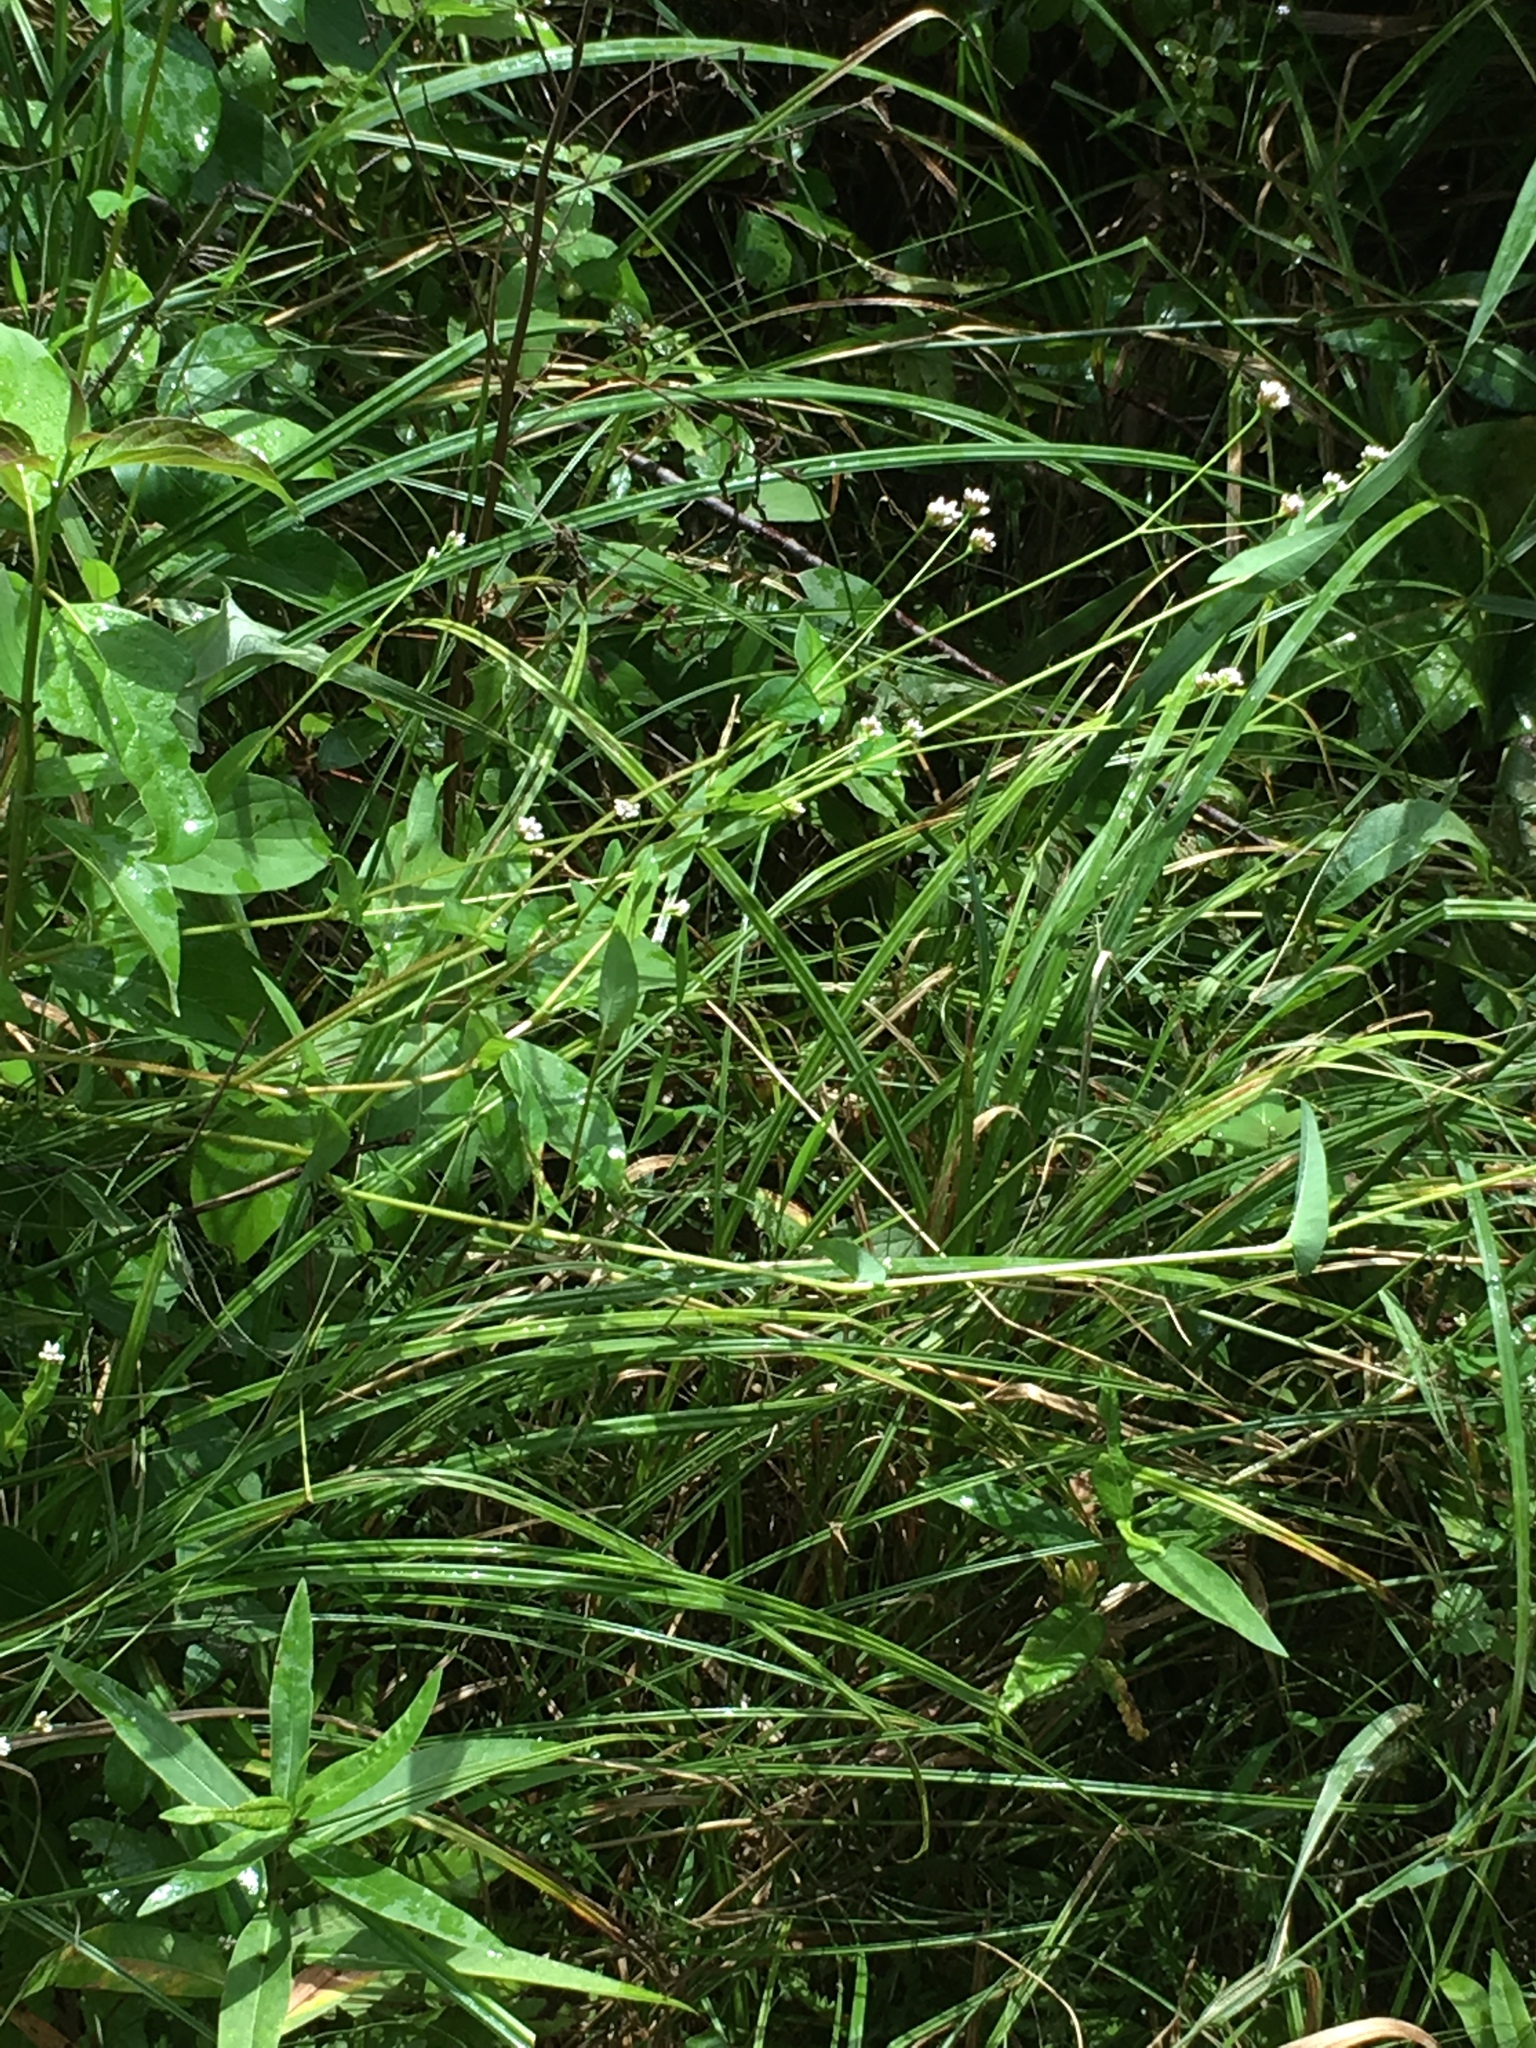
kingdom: Plantae
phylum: Tracheophyta
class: Magnoliopsida
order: Caryophyllales
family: Polygonaceae
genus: Persicaria
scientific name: Persicaria sagittata
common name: American tearthumb
